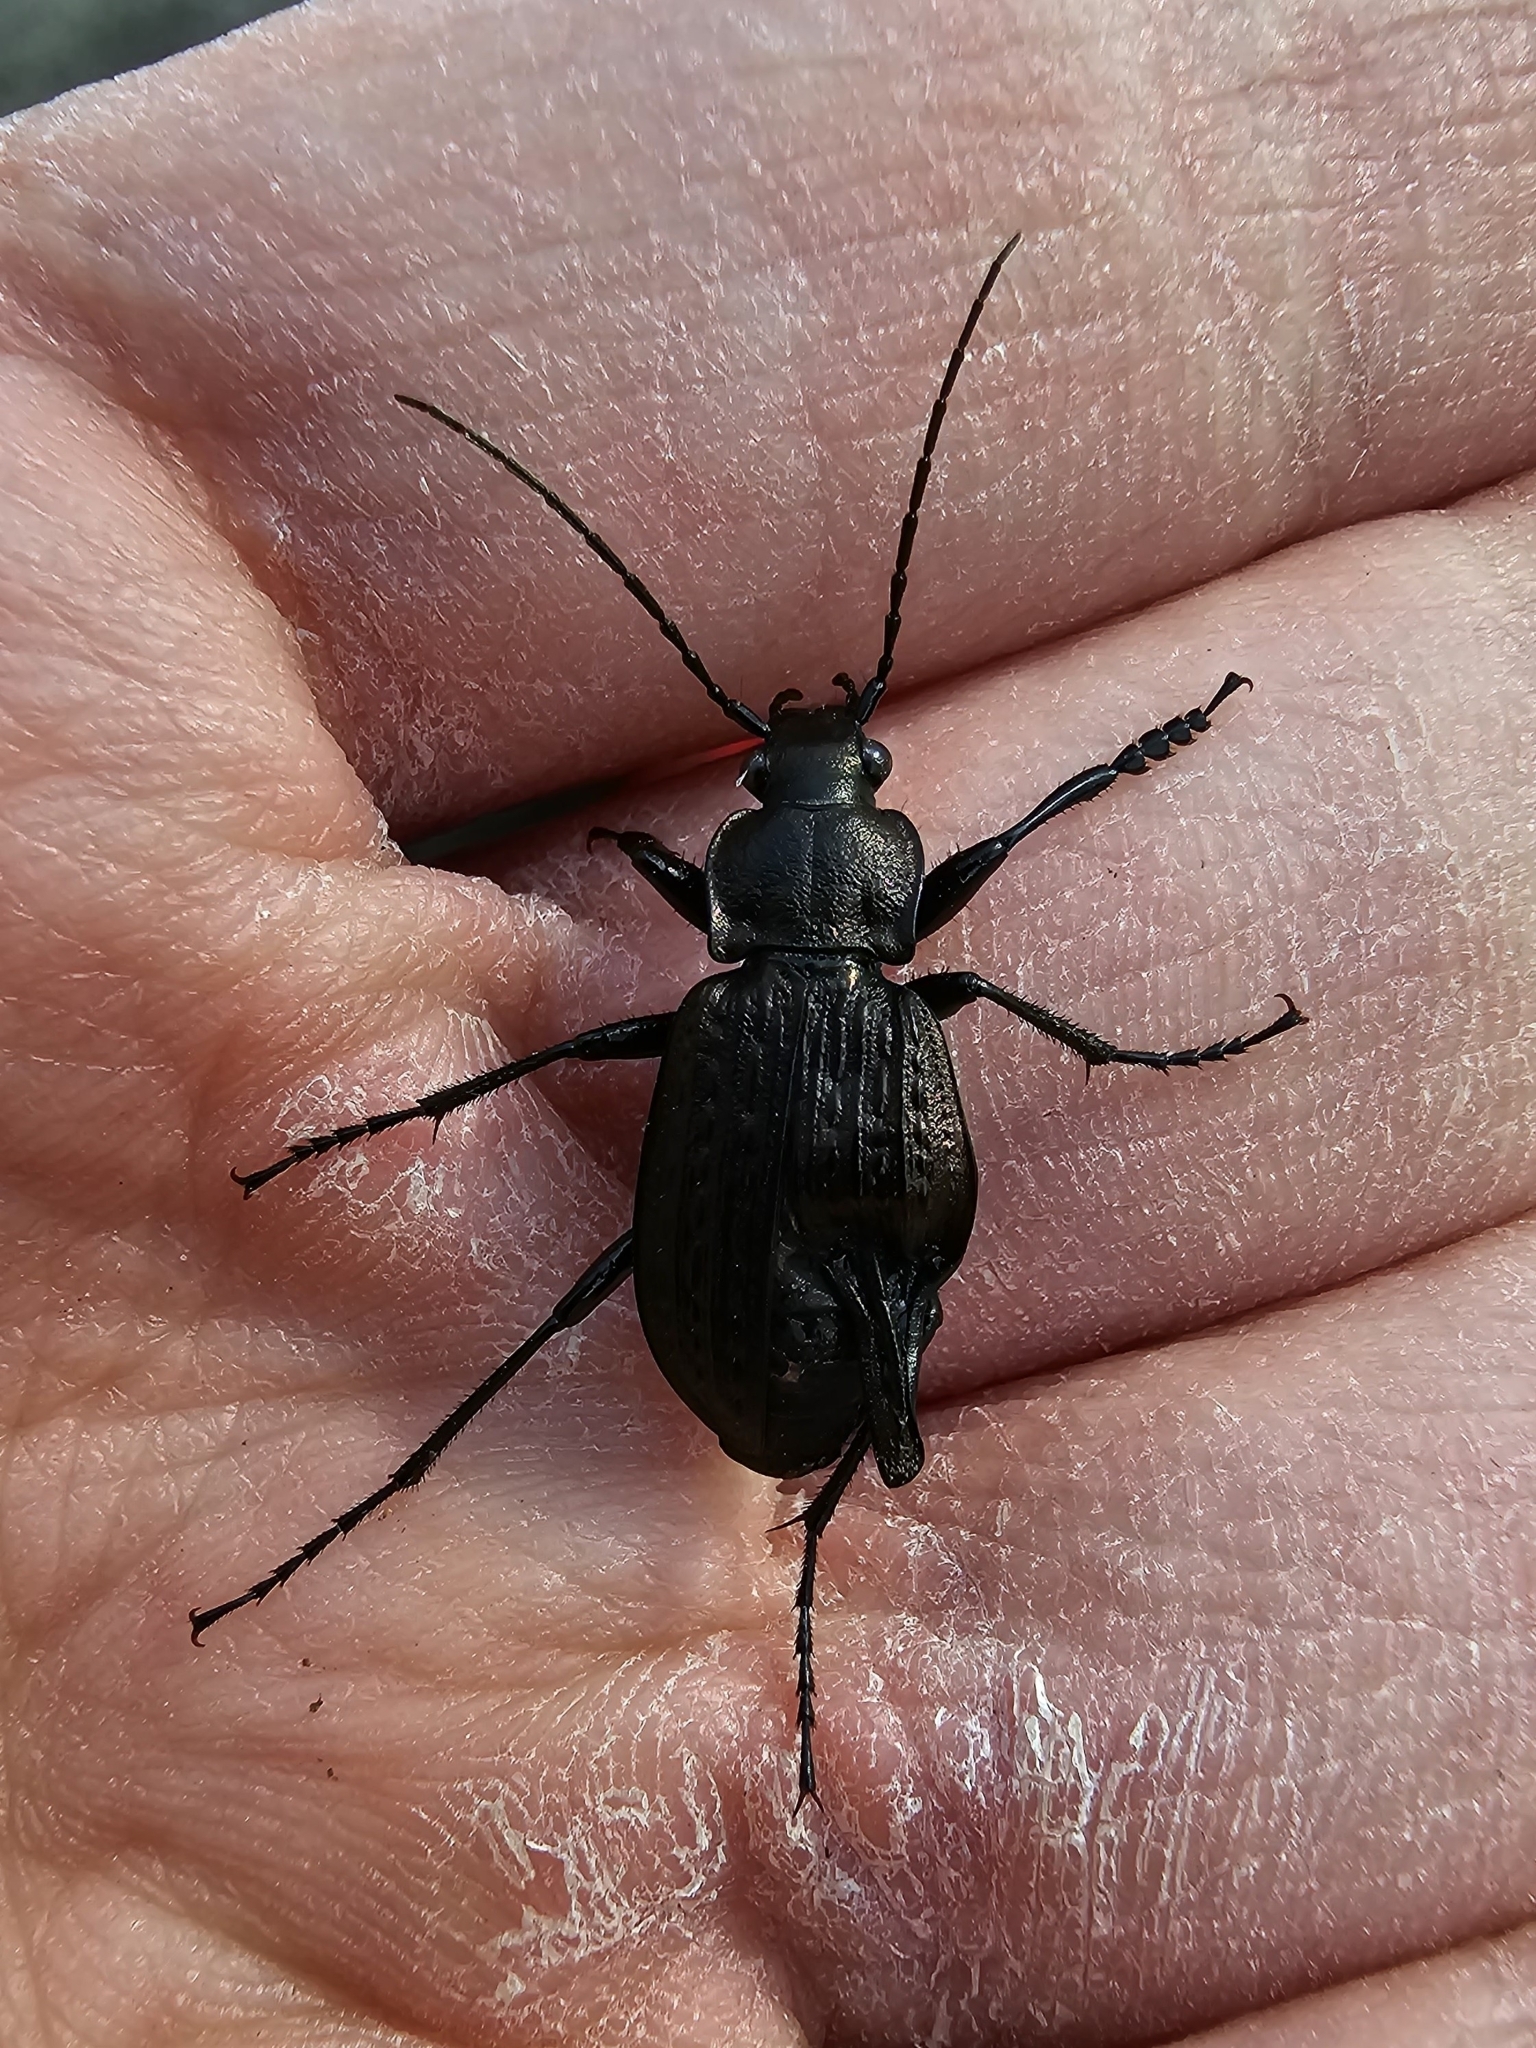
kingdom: Animalia
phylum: Arthropoda
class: Insecta
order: Coleoptera
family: Carabidae
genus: Carabus
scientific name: Carabus granulatus
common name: Granulate ground beetle
